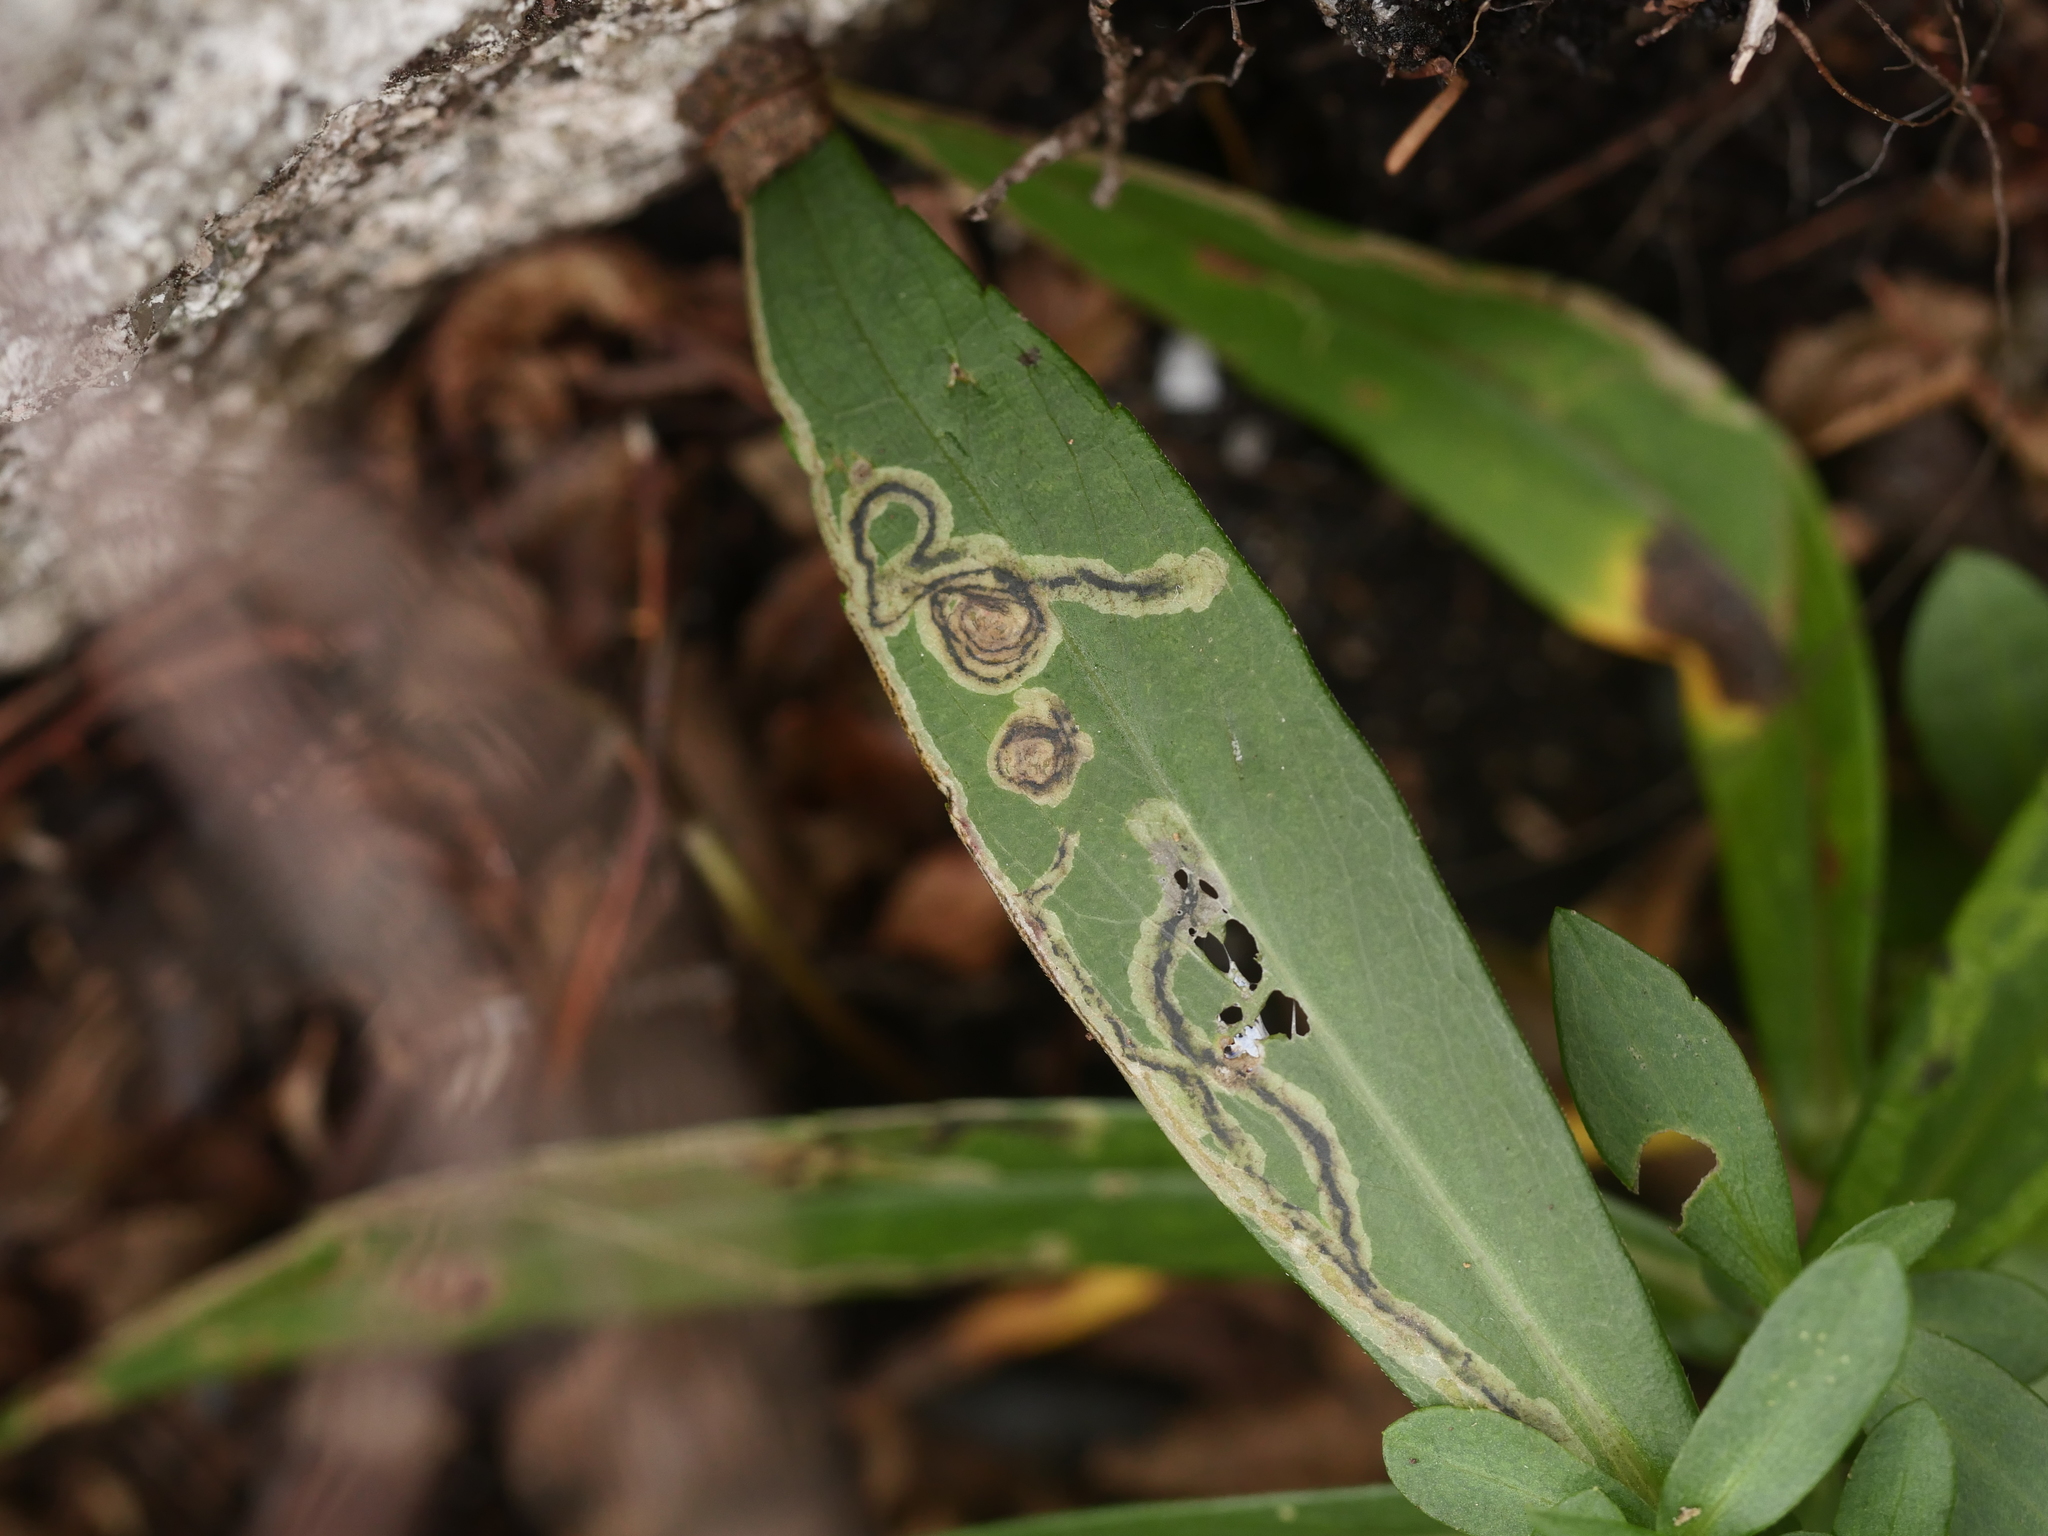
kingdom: Animalia
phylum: Arthropoda
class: Insecta
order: Diptera
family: Agromyzidae
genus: Liriomyza
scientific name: Liriomyza eupatorii
